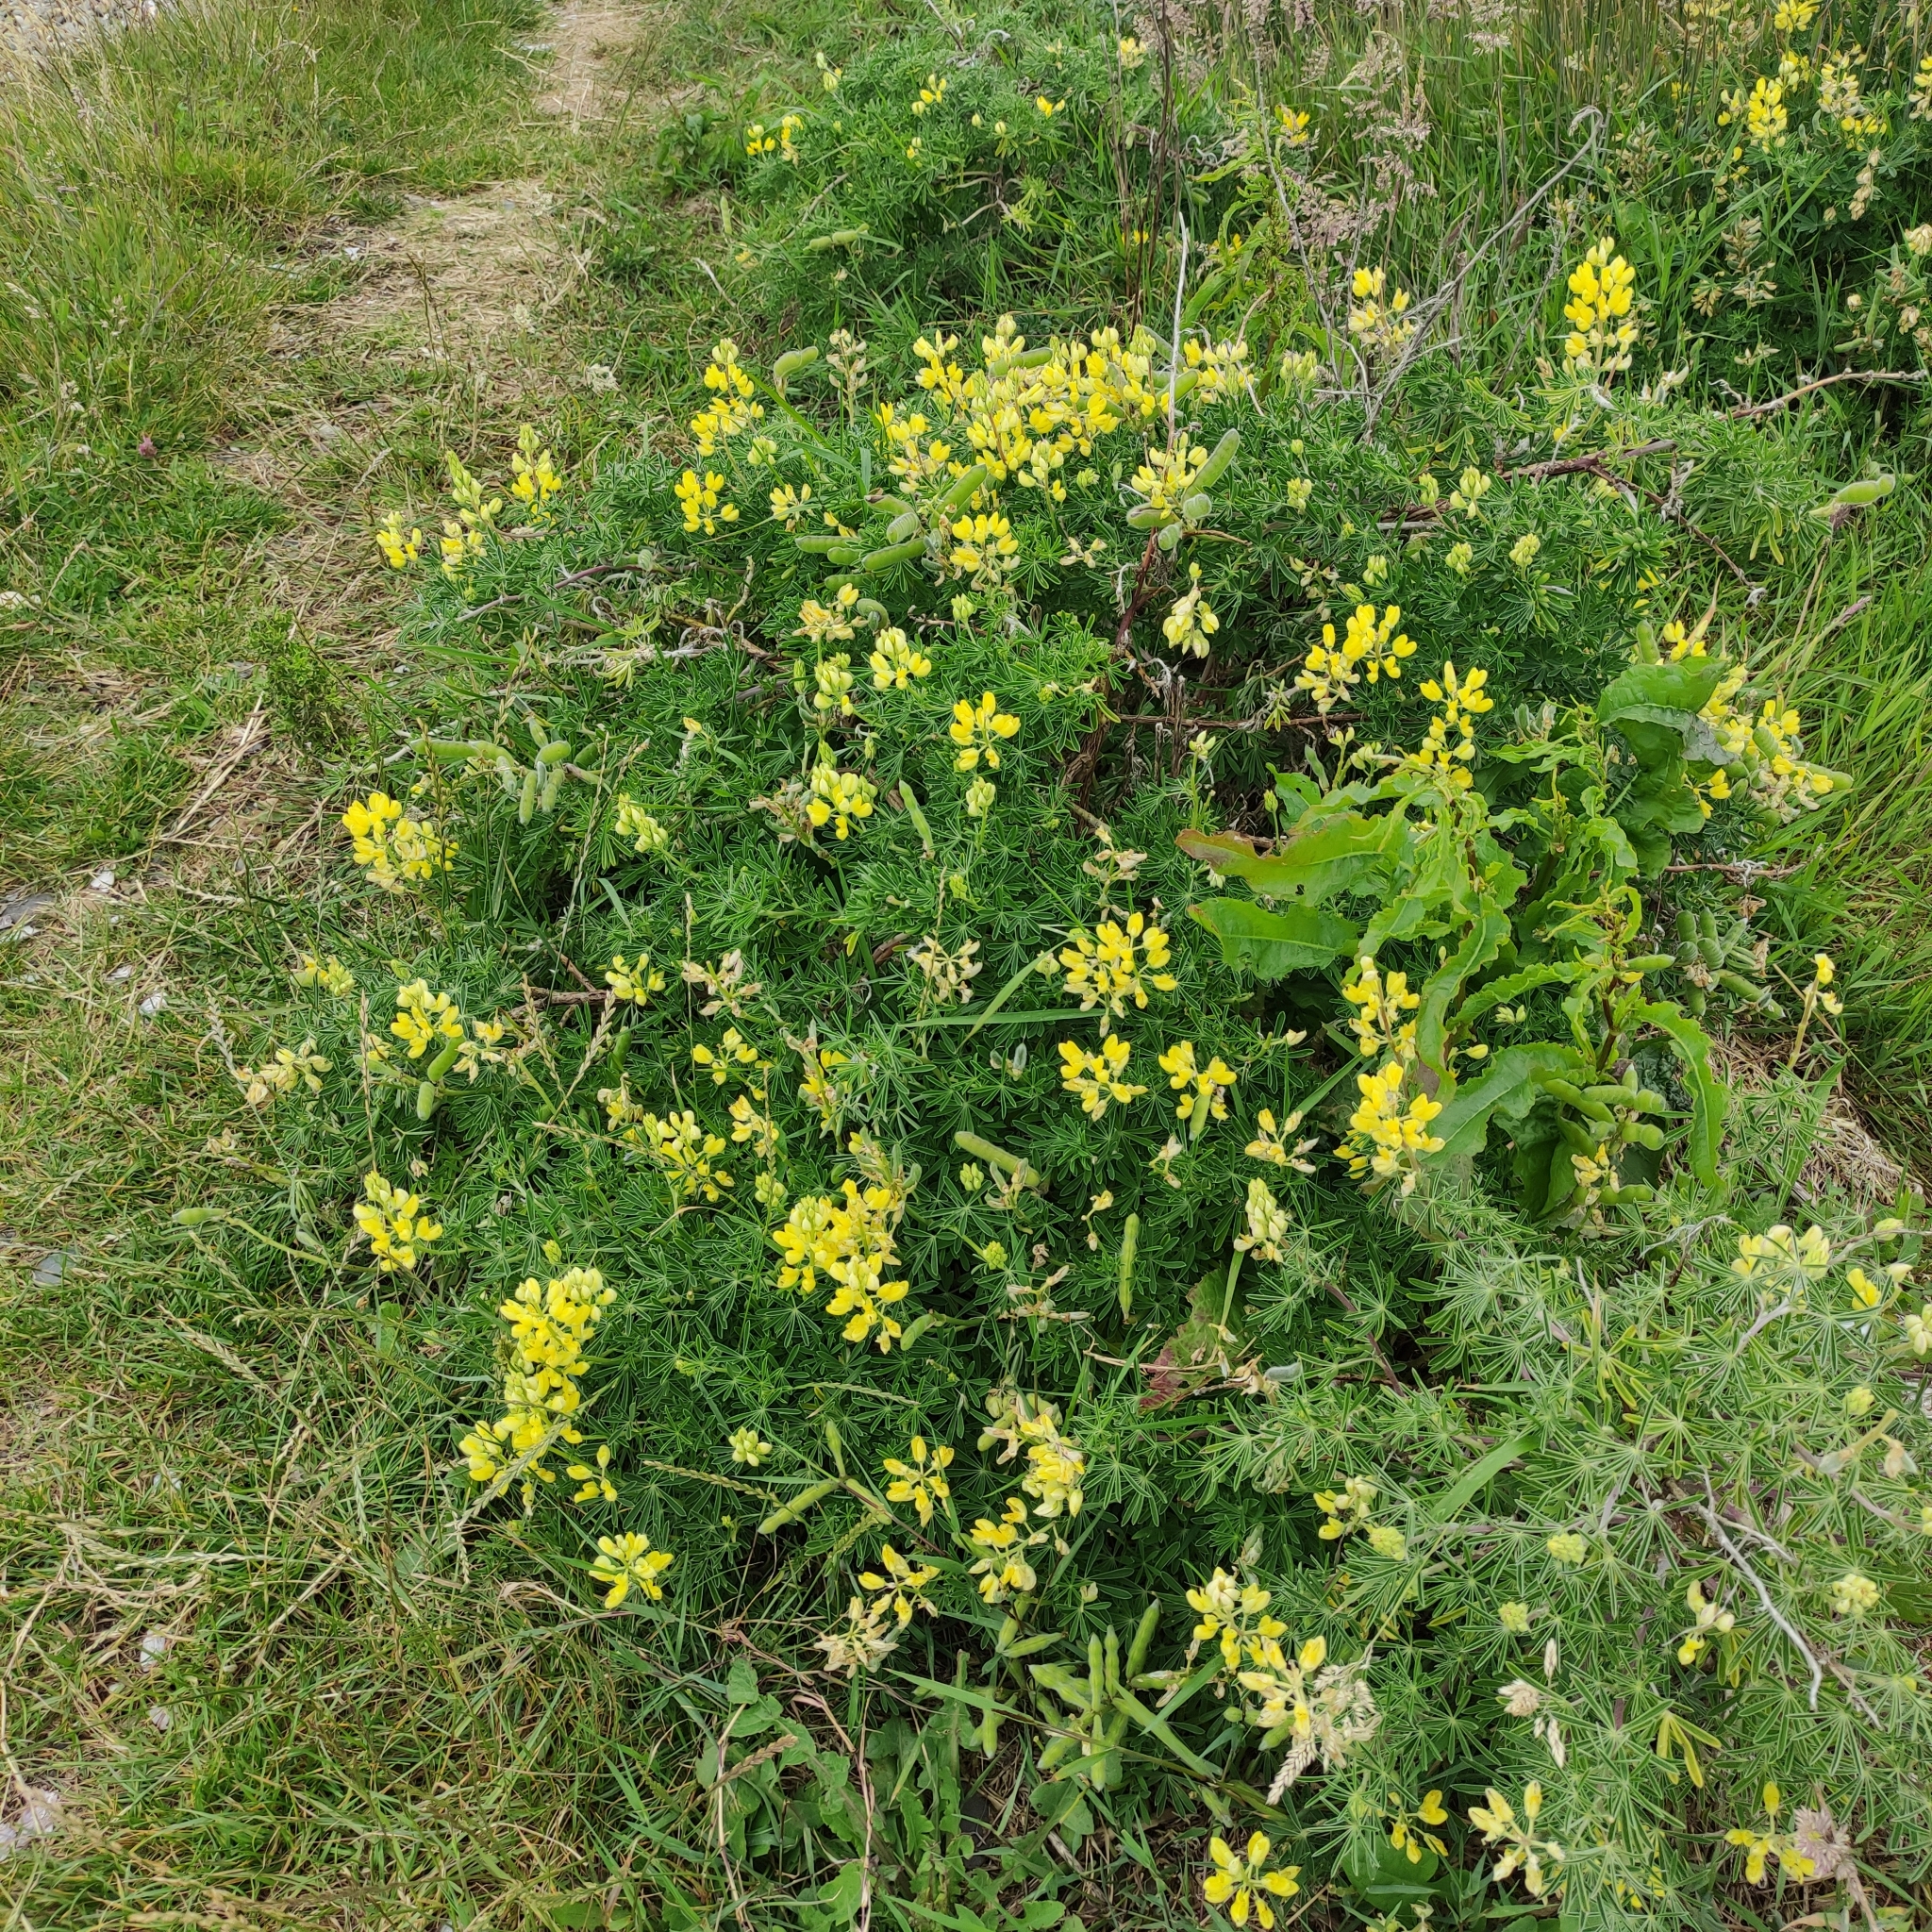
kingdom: Plantae
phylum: Tracheophyta
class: Magnoliopsida
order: Fabales
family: Fabaceae
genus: Lupinus
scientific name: Lupinus arboreus
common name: Yellow bush lupine
